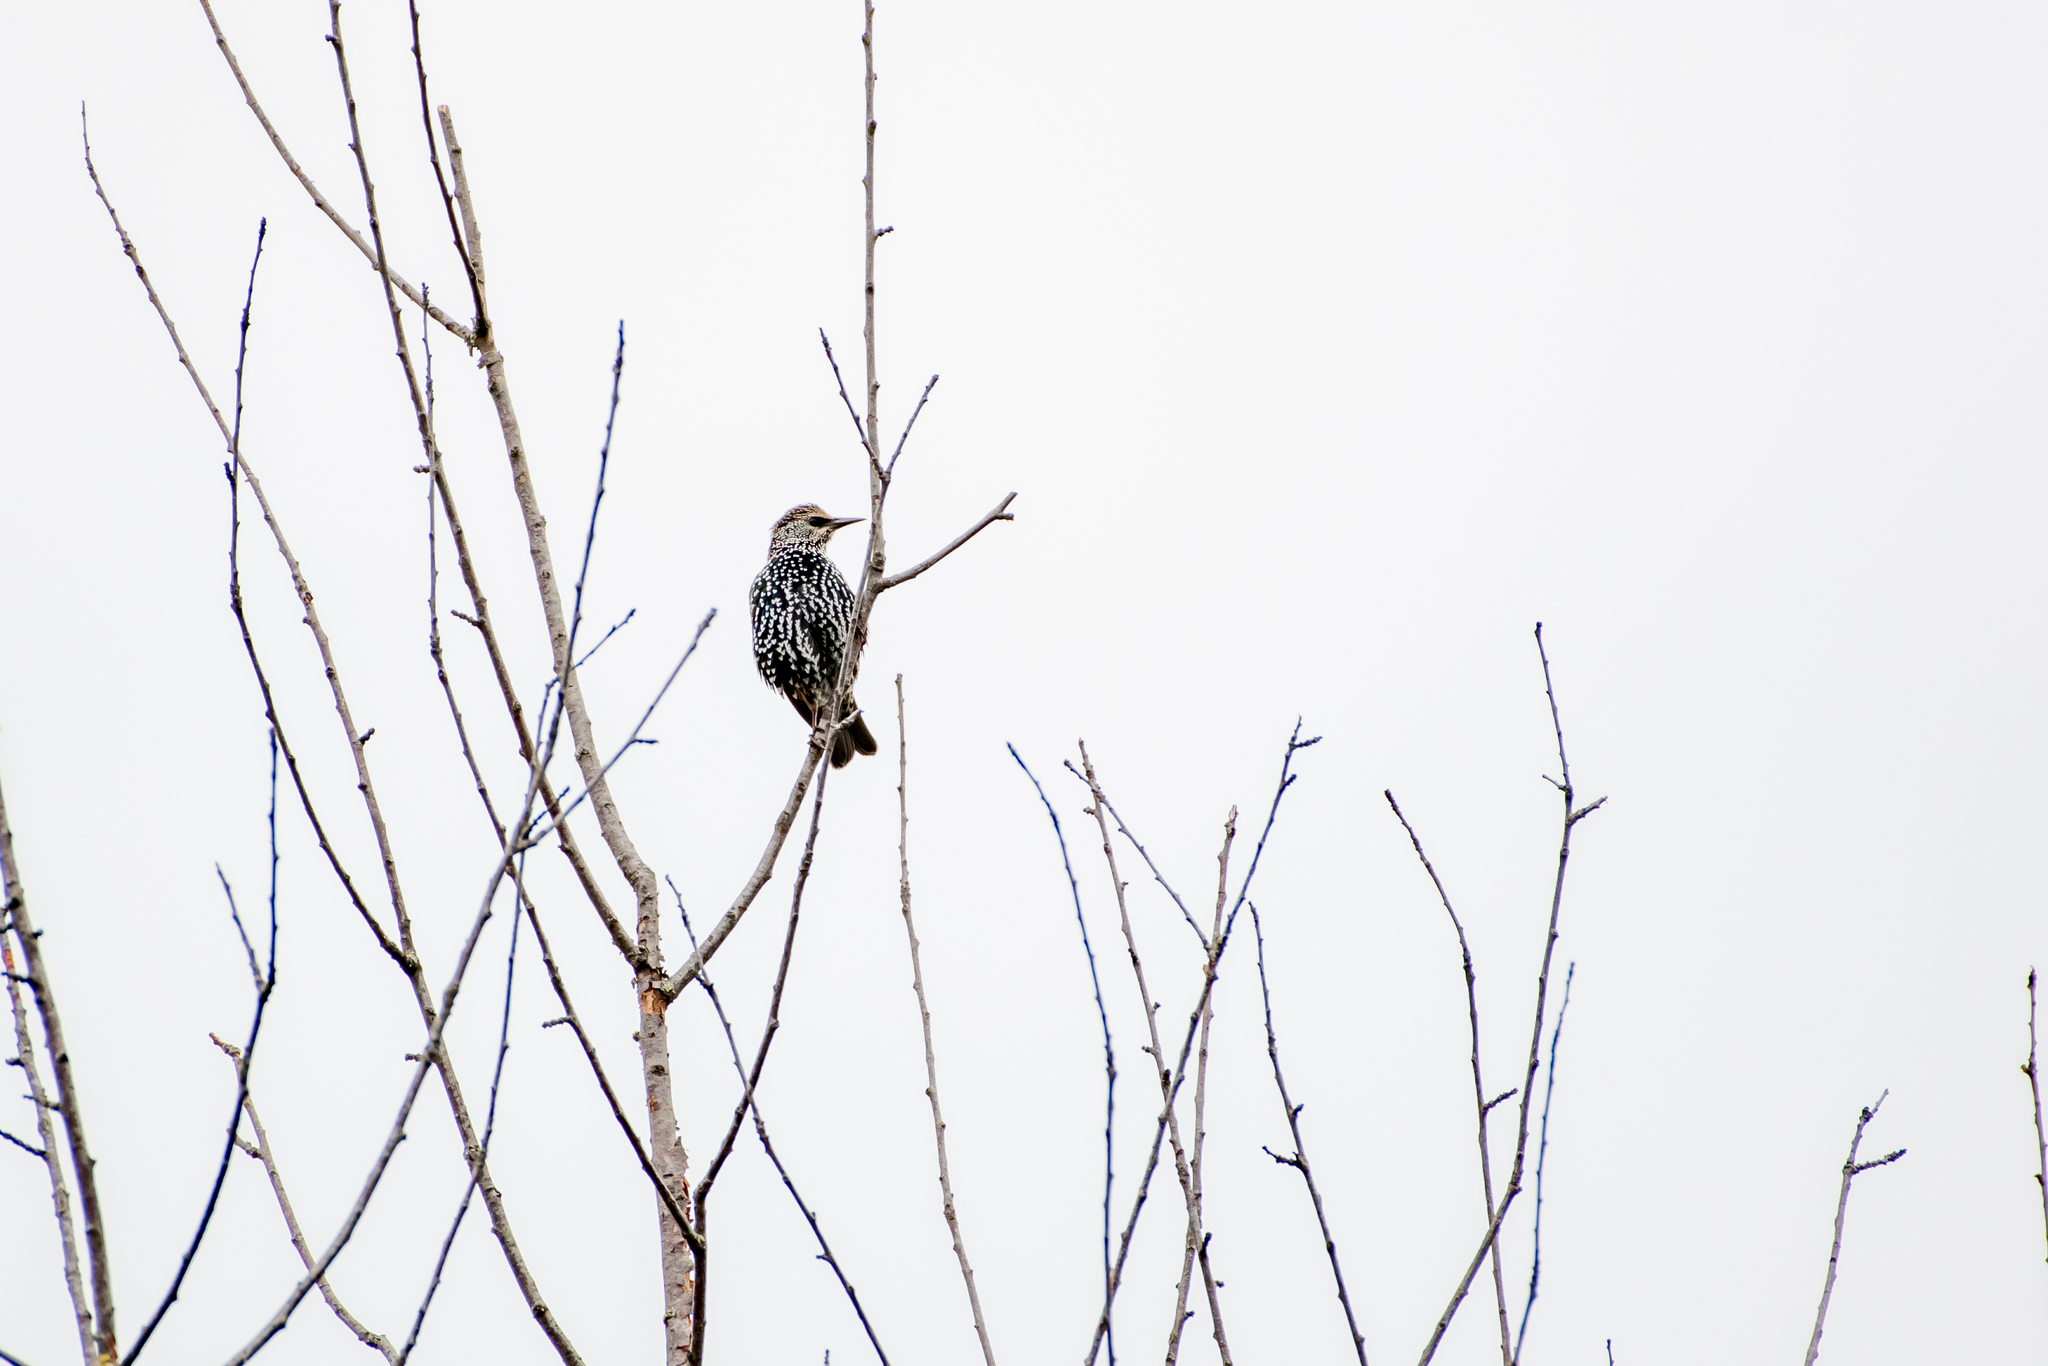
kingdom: Animalia
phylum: Chordata
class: Aves
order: Passeriformes
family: Sturnidae
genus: Sturnus
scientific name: Sturnus vulgaris
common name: Common starling
